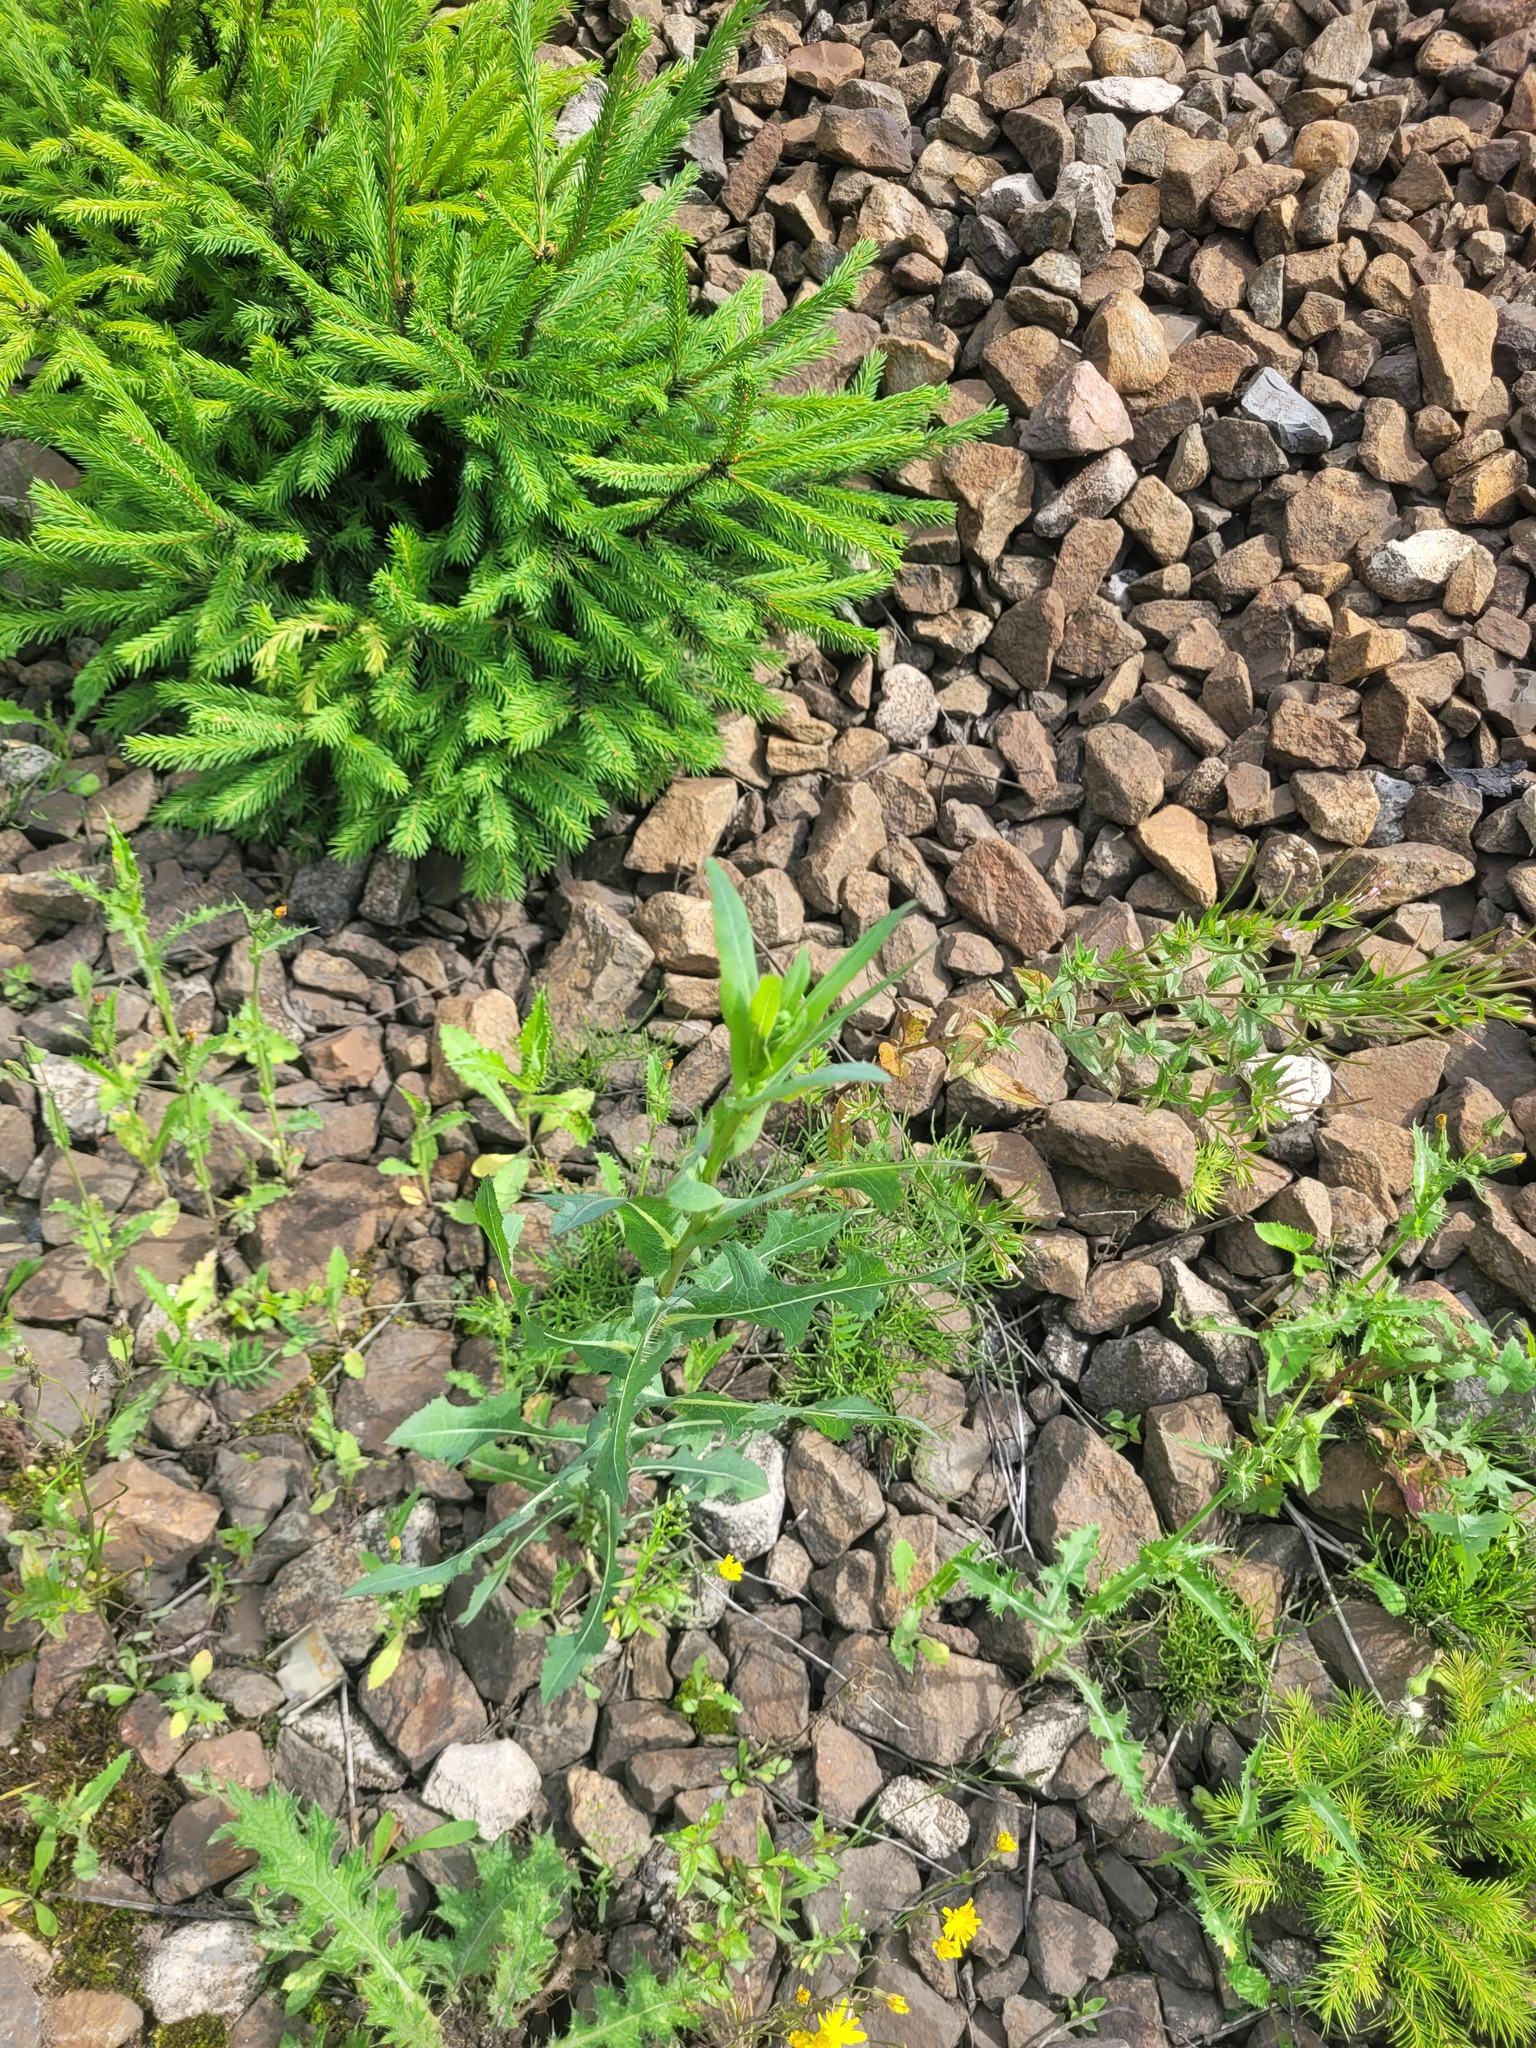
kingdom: Plantae
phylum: Tracheophyta
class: Magnoliopsida
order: Asterales
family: Asteraceae
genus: Lactuca
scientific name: Lactuca serriola
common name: Prickly lettuce
